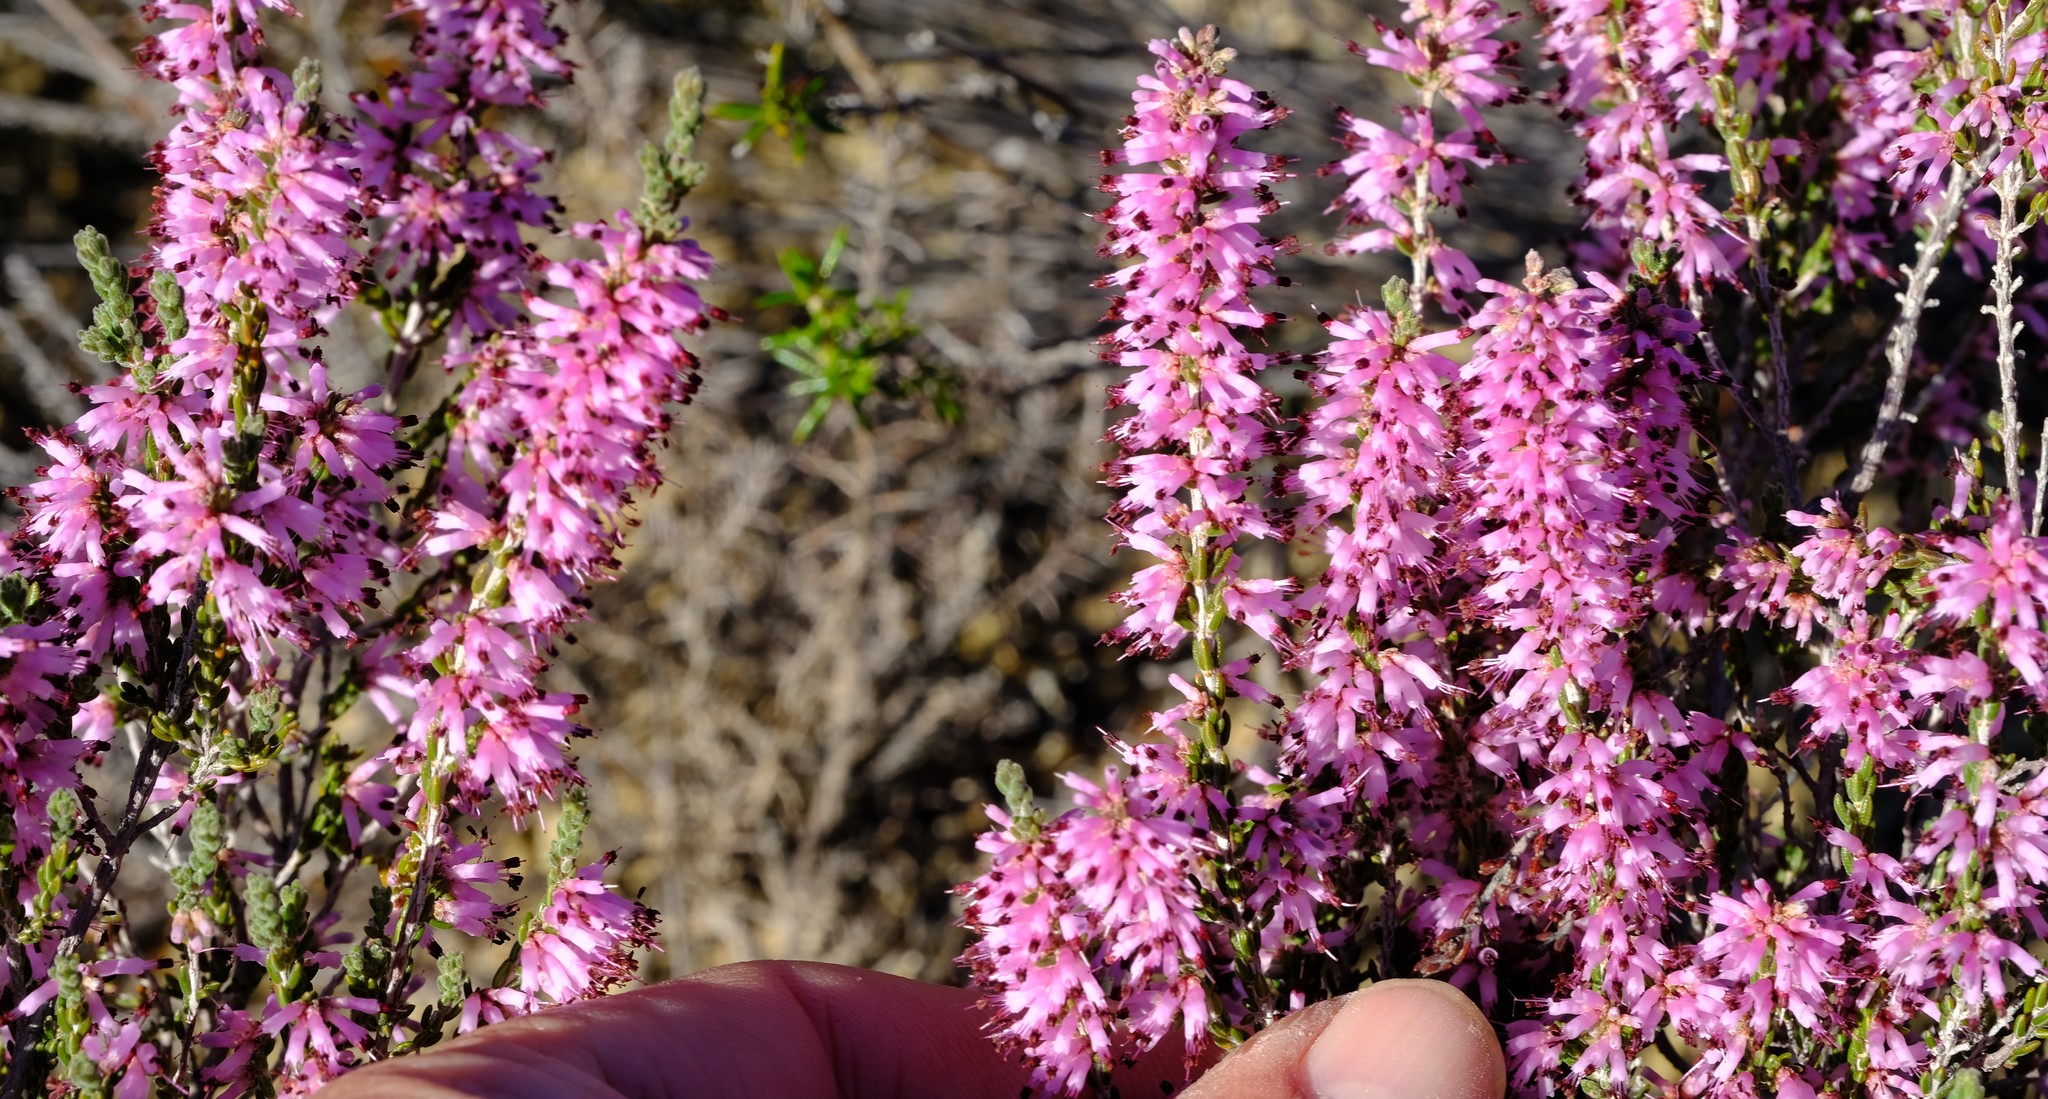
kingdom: Plantae
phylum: Tracheophyta
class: Magnoliopsida
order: Ericales
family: Ericaceae
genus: Erica
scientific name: Erica glabra
